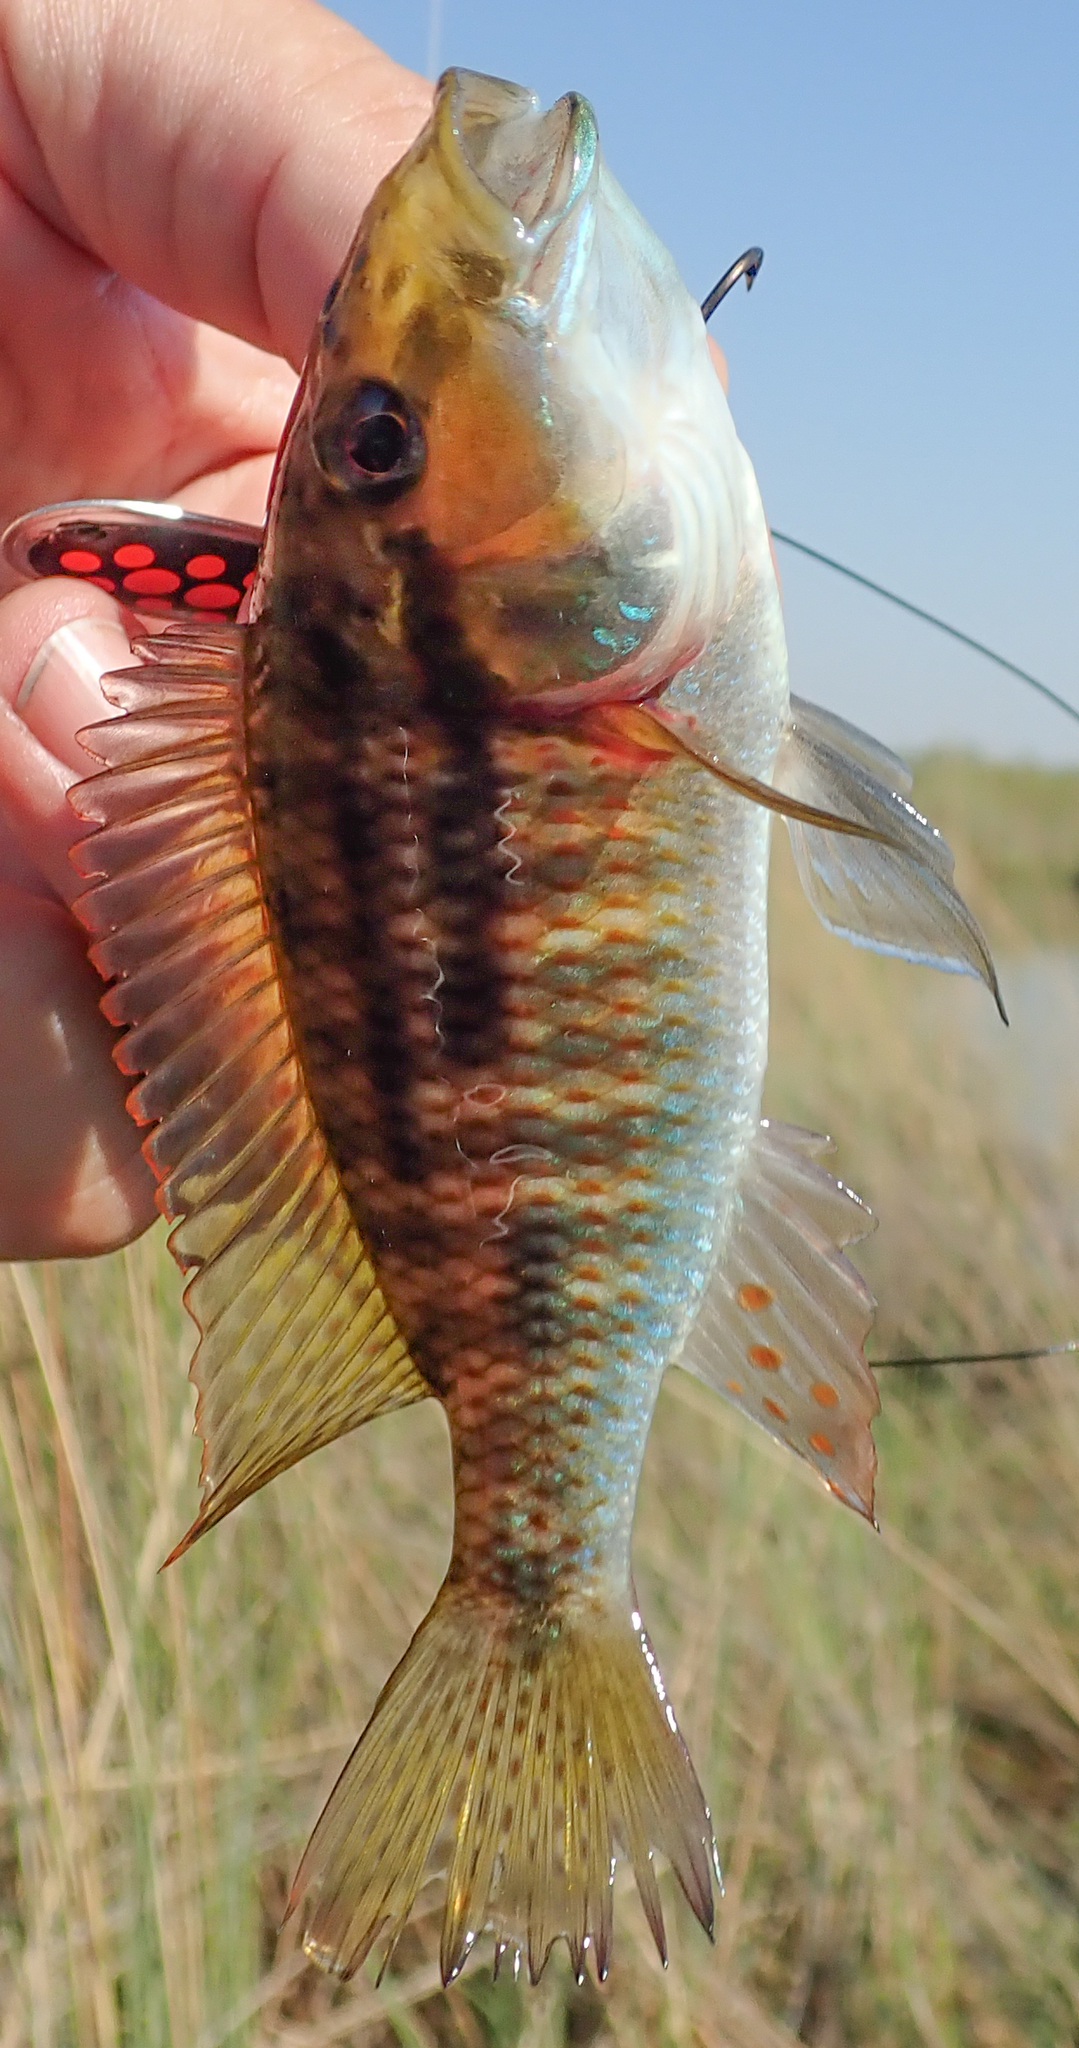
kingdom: Animalia
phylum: Chordata
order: Perciformes
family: Cichlidae
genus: Pharyngochromis
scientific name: Pharyngochromis acuticeps
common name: Zambezi happy
